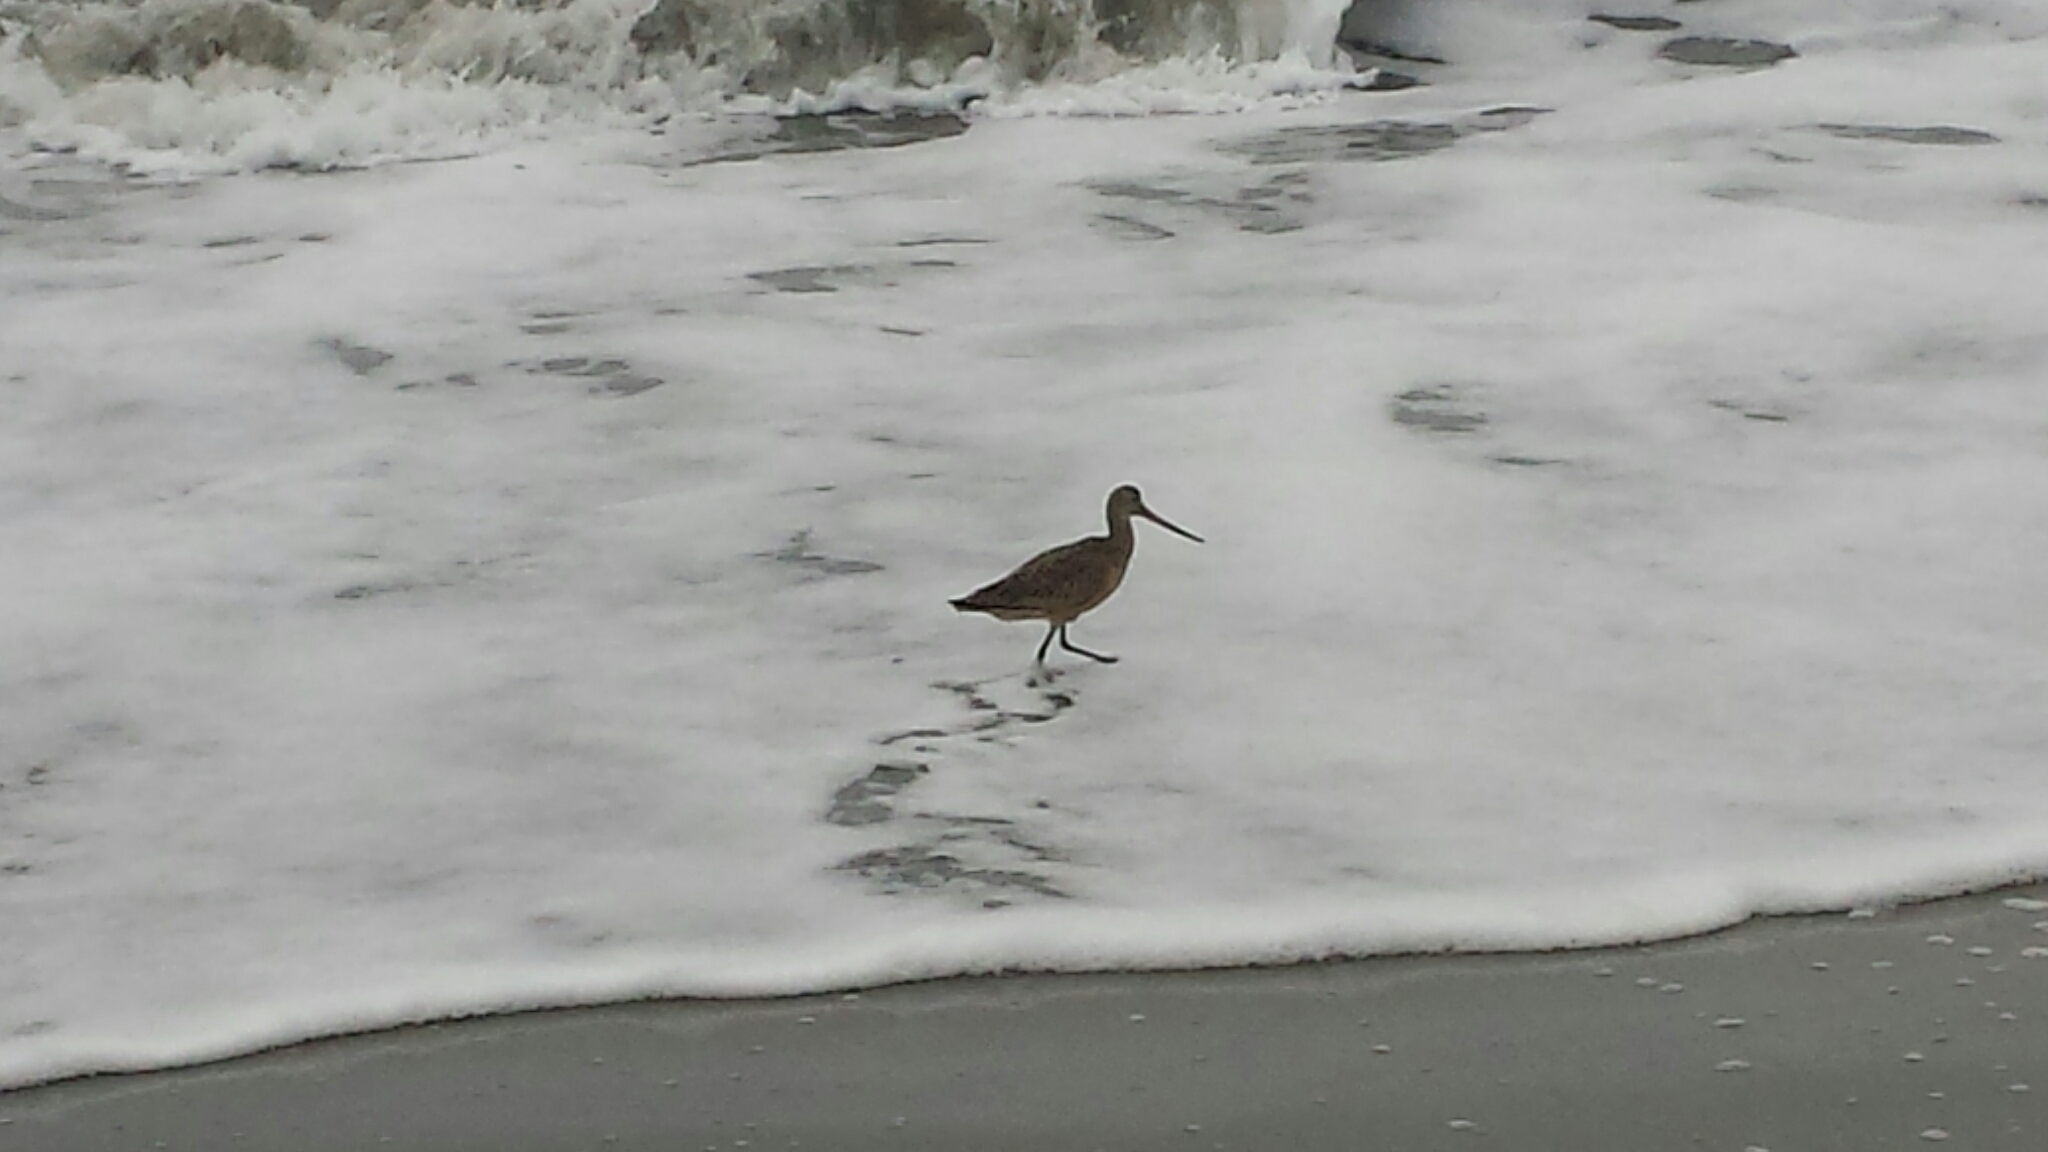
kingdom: Animalia
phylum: Chordata
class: Aves
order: Charadriiformes
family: Scolopacidae
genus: Limosa
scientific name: Limosa fedoa
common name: Marbled godwit
